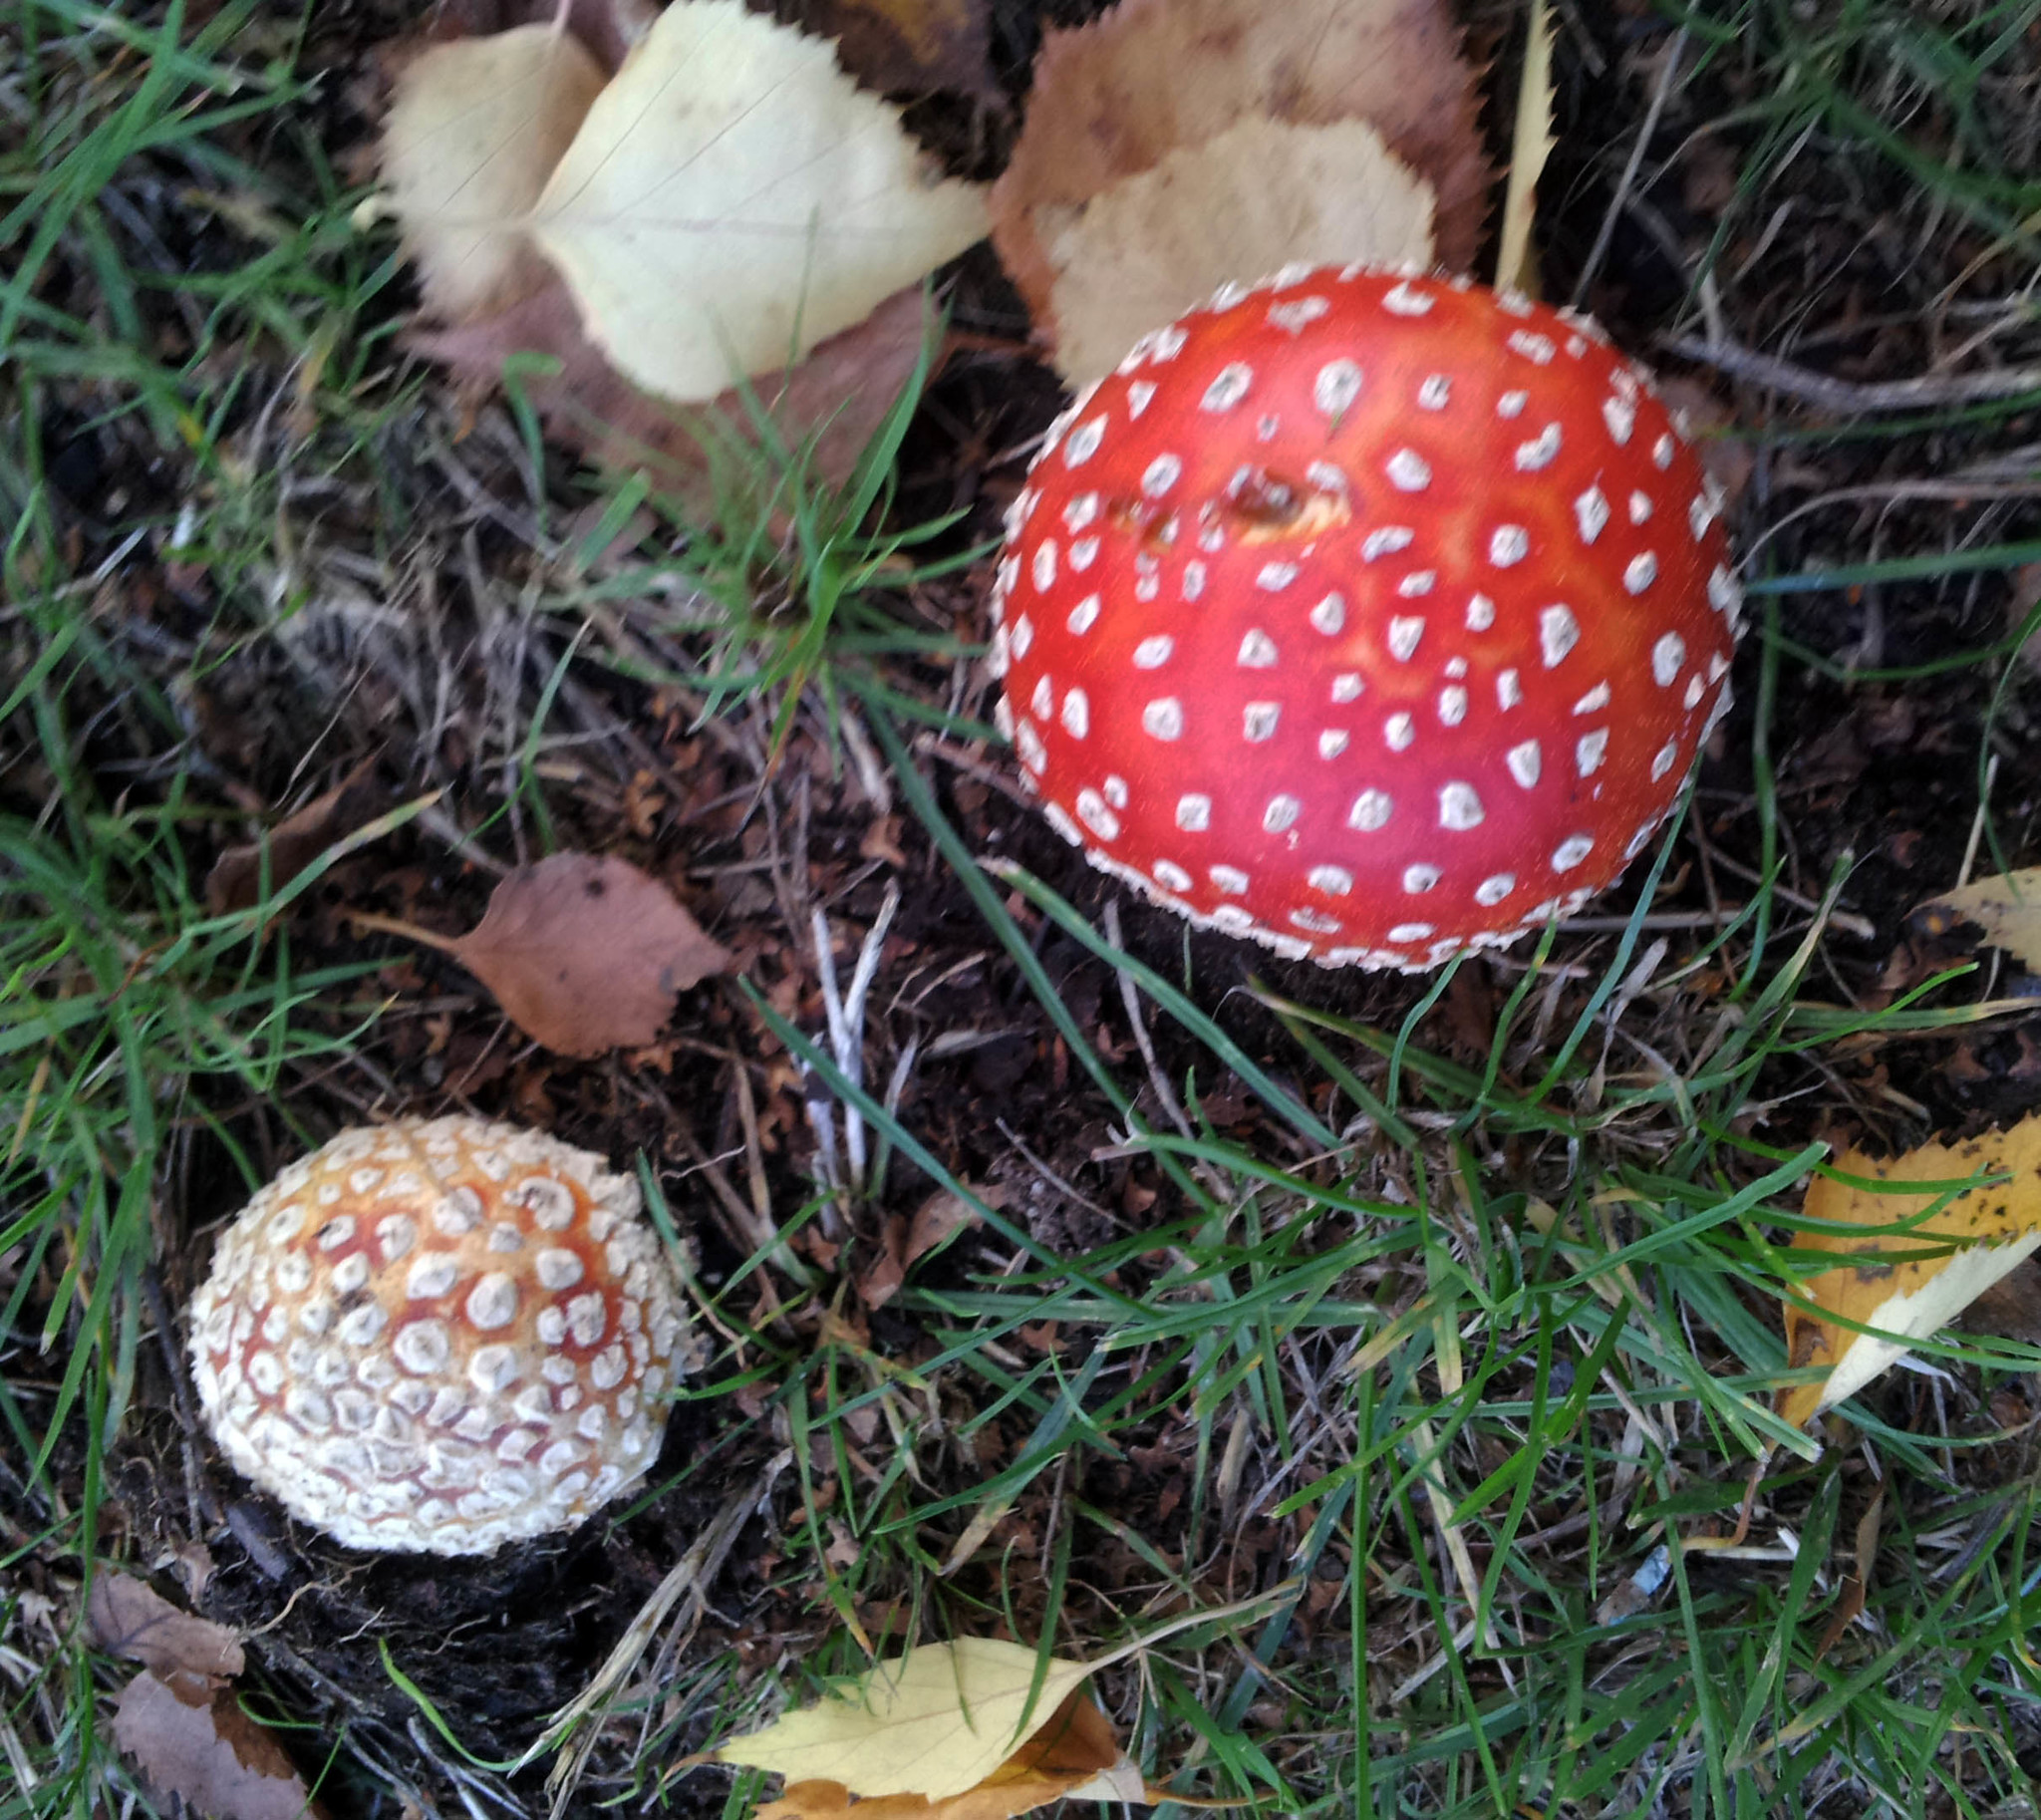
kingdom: Fungi
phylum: Basidiomycota
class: Agaricomycetes
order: Agaricales
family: Amanitaceae
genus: Amanita
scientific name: Amanita muscaria
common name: Fly agaric
